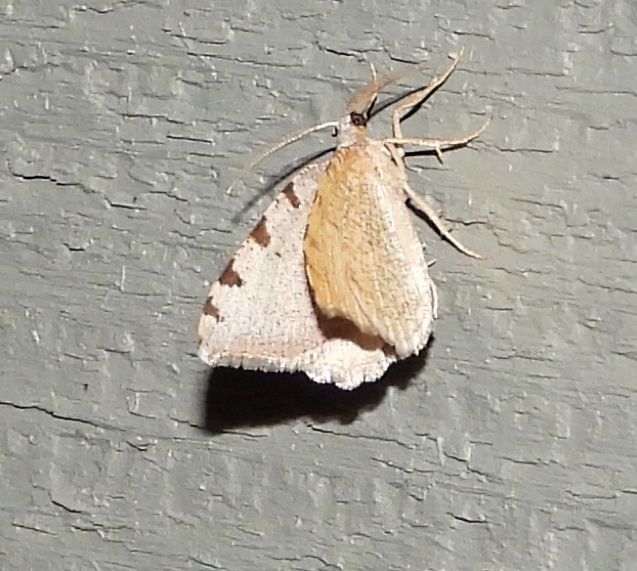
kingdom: Animalia
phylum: Arthropoda
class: Insecta
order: Lepidoptera
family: Geometridae
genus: Macaria
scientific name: Macaria coortaria
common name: Four-spotted granite
